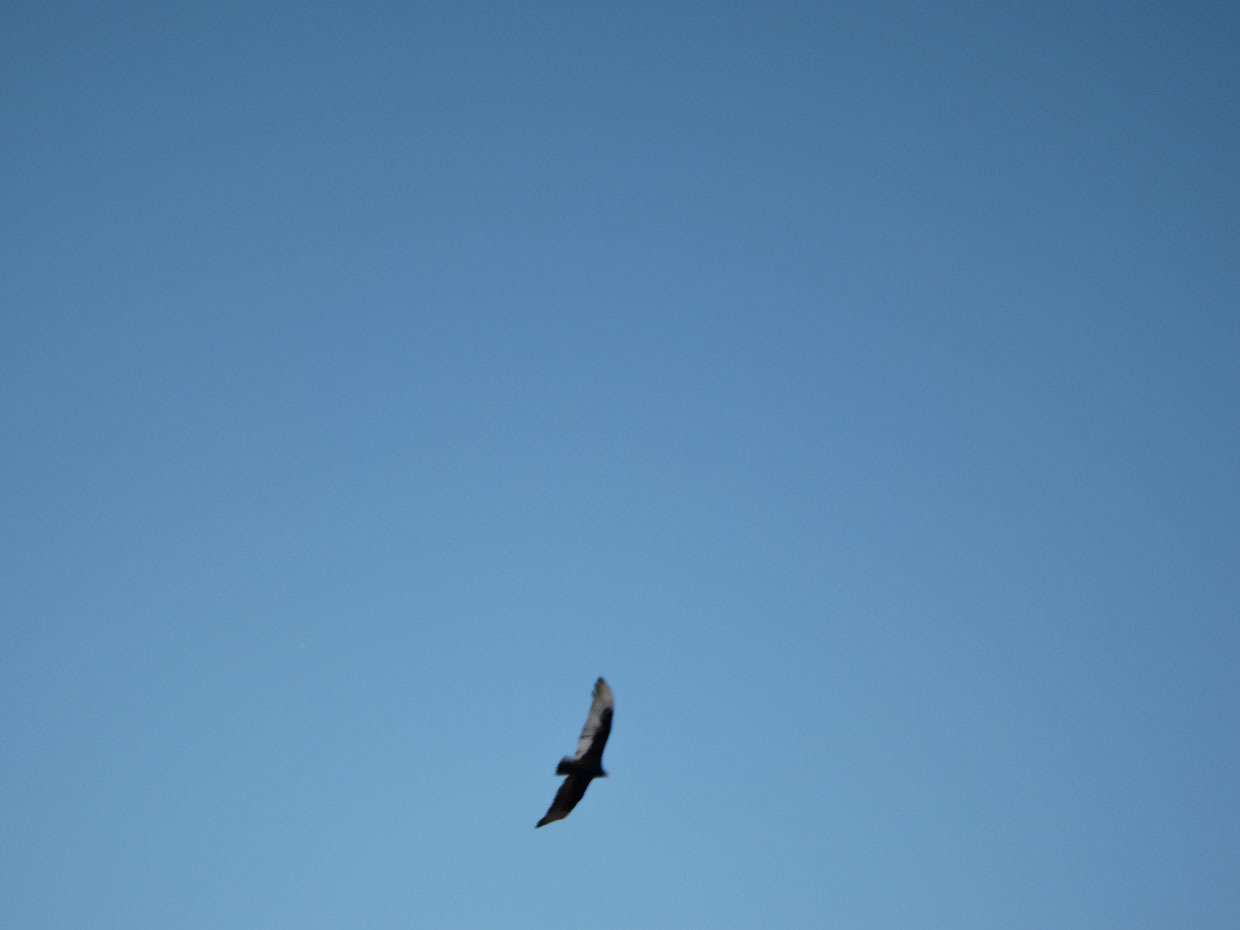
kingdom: Animalia
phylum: Chordata
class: Aves
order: Accipitriformes
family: Cathartidae
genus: Cathartes
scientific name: Cathartes aura
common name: Turkey vulture
